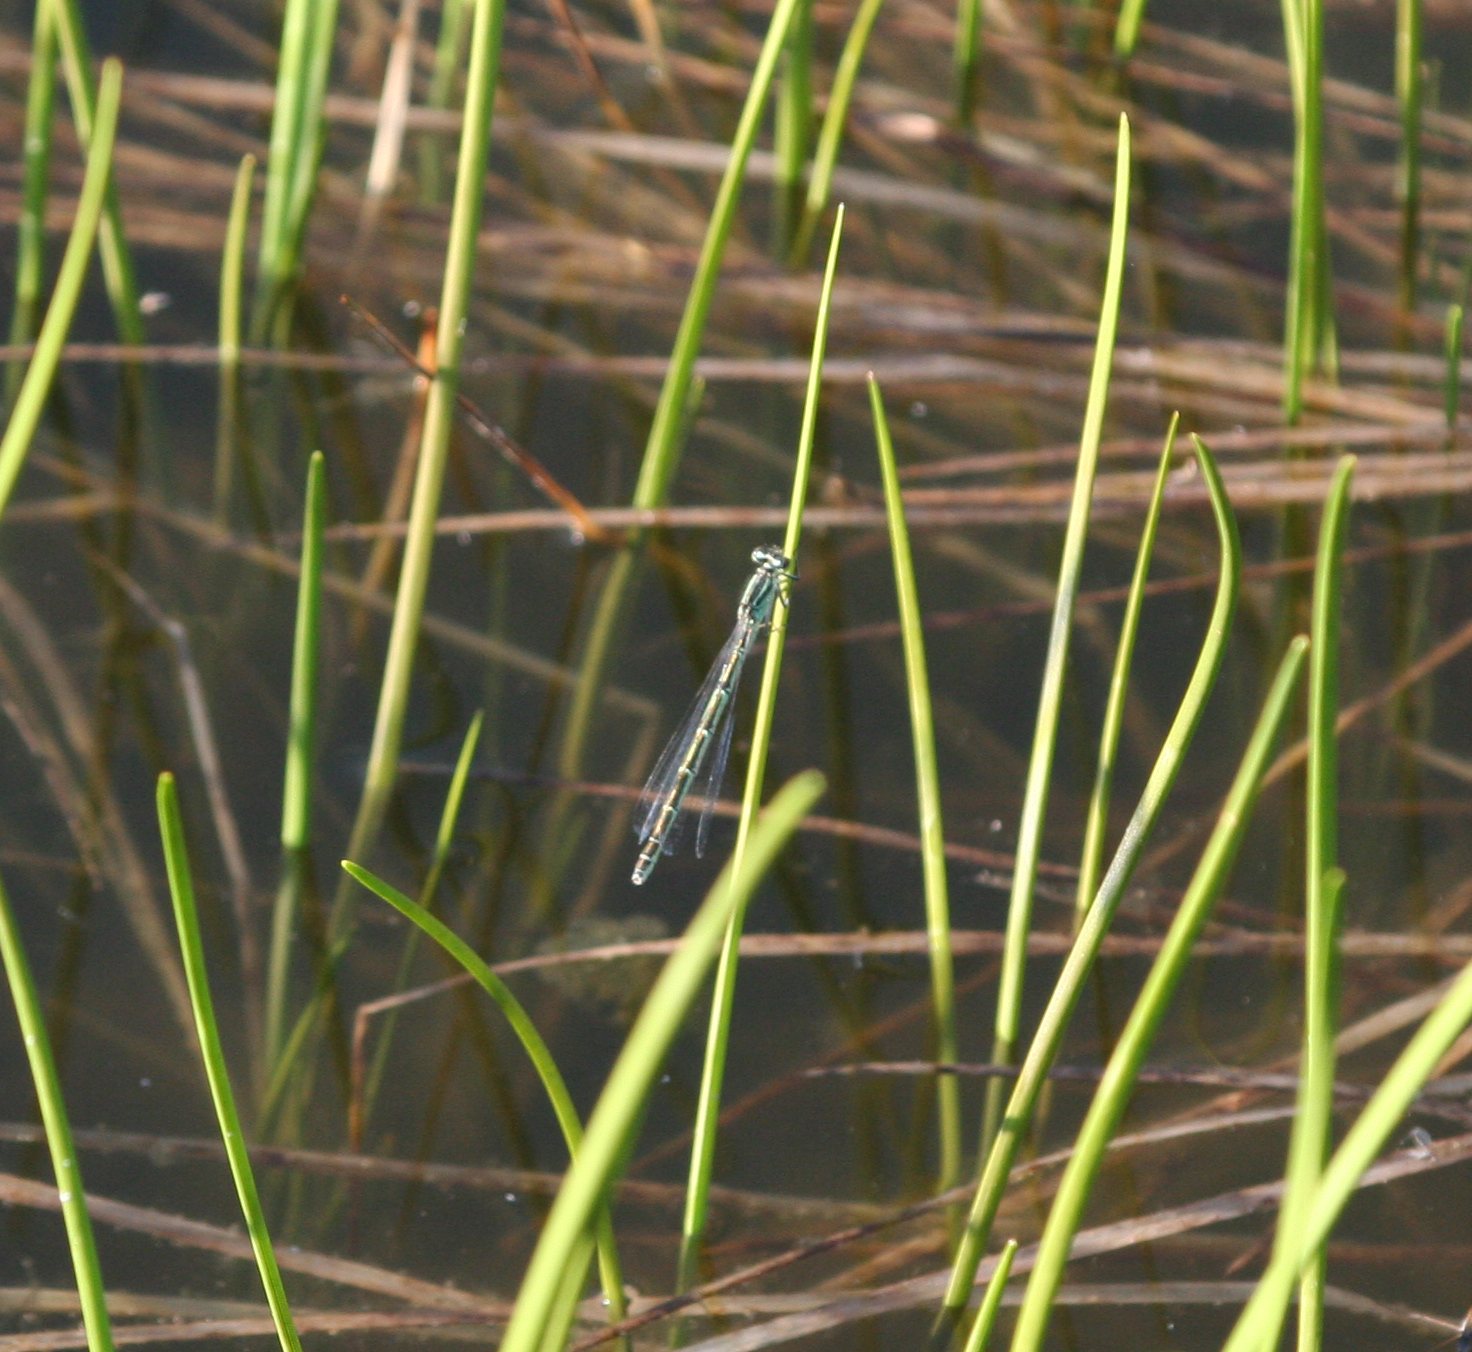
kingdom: Animalia
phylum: Arthropoda
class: Insecta
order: Odonata
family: Coenagrionidae
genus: Coenagrion
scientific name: Coenagrion hastulatum
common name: Spearhead bluet
